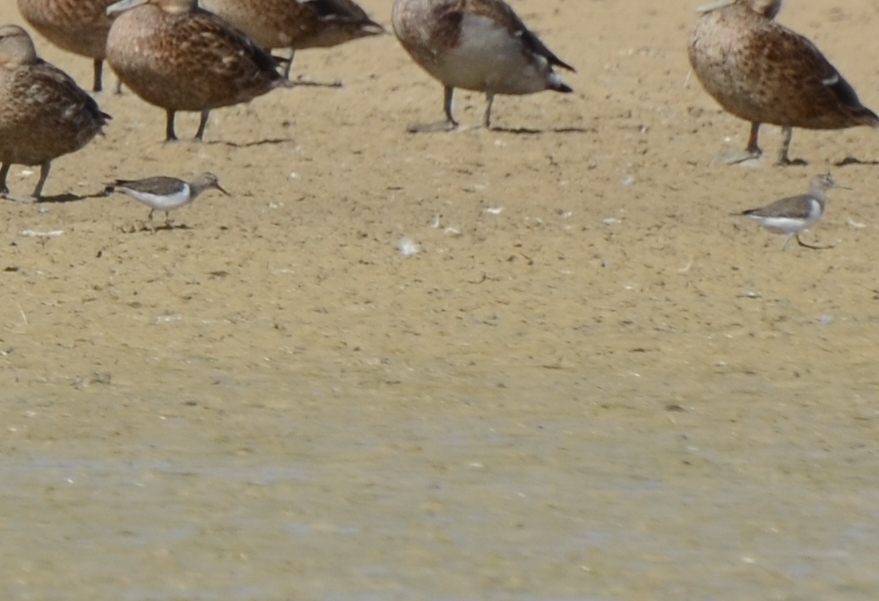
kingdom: Animalia
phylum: Chordata
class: Aves
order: Charadriiformes
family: Scolopacidae
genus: Actitis
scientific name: Actitis hypoleucos
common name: Common sandpiper
